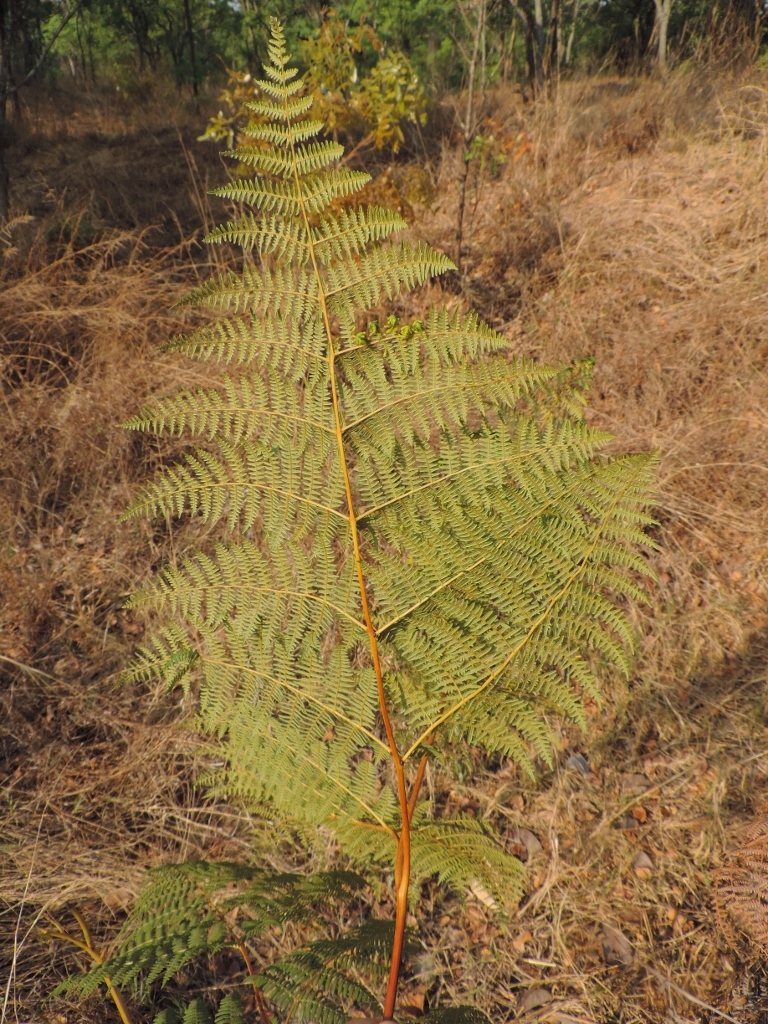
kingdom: Plantae
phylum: Tracheophyta
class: Polypodiopsida
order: Polypodiales
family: Dennstaedtiaceae
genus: Pteridium
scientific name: Pteridium aquilinum
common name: Bracken
